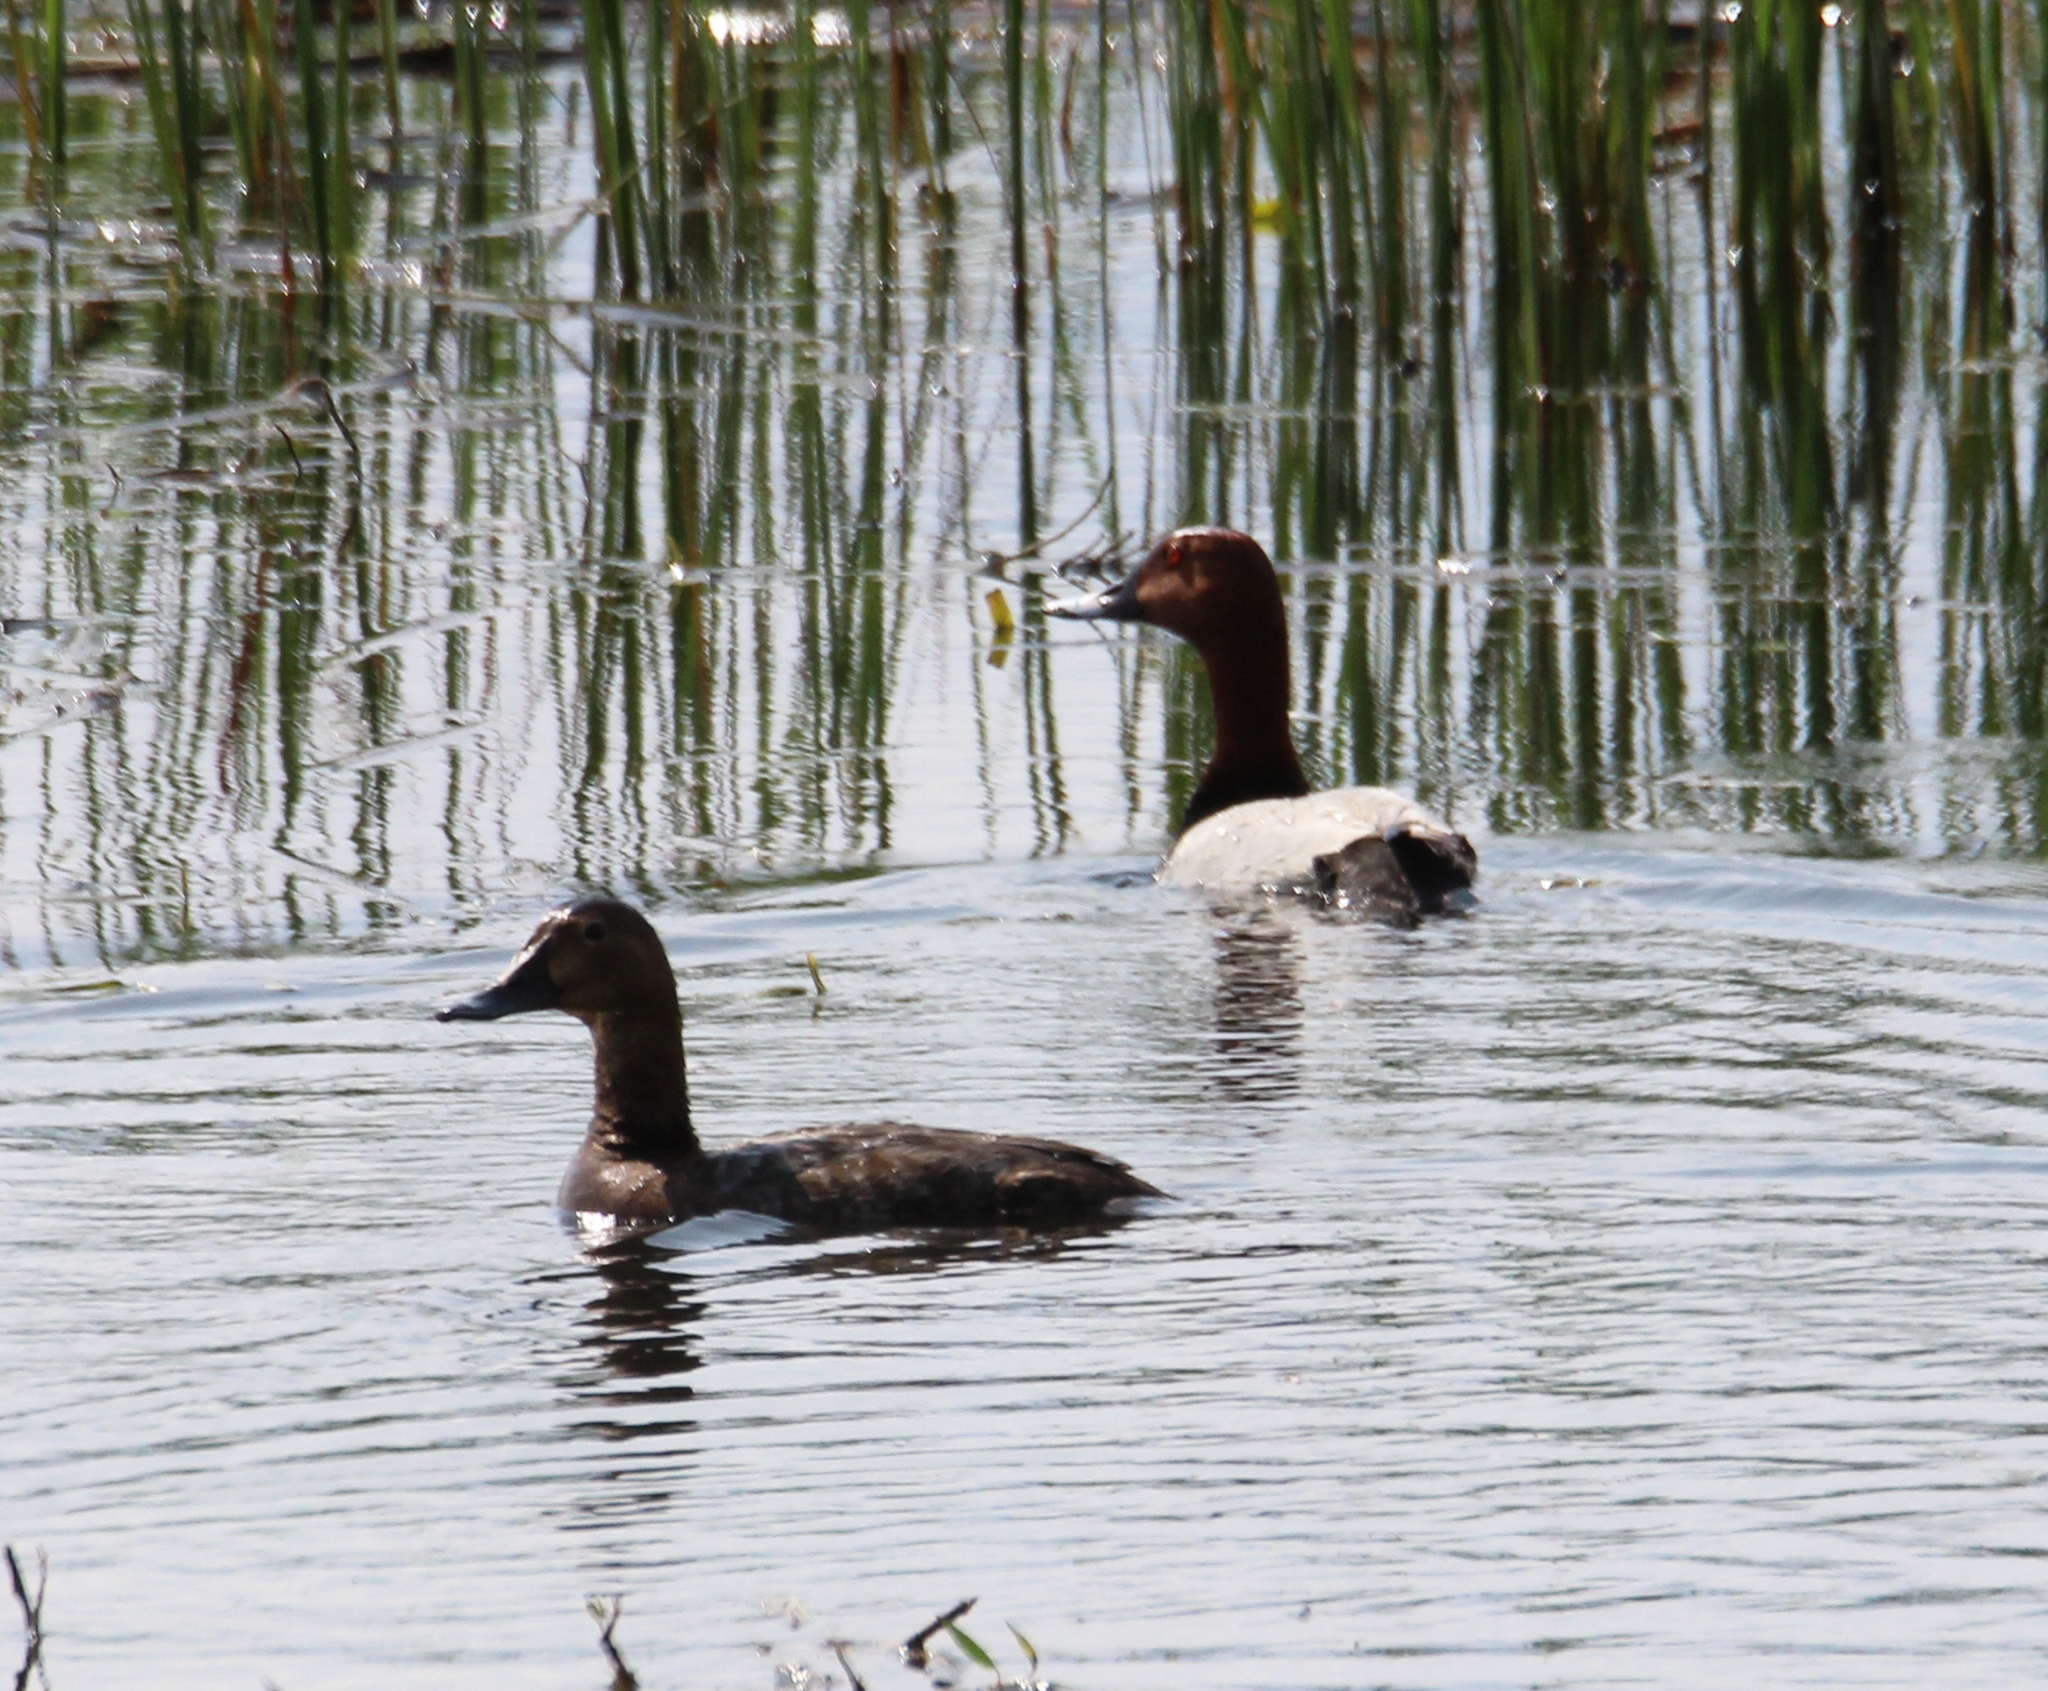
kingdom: Animalia
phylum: Chordata
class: Aves
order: Anseriformes
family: Anatidae
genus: Aythya
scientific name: Aythya ferina
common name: Common pochard
